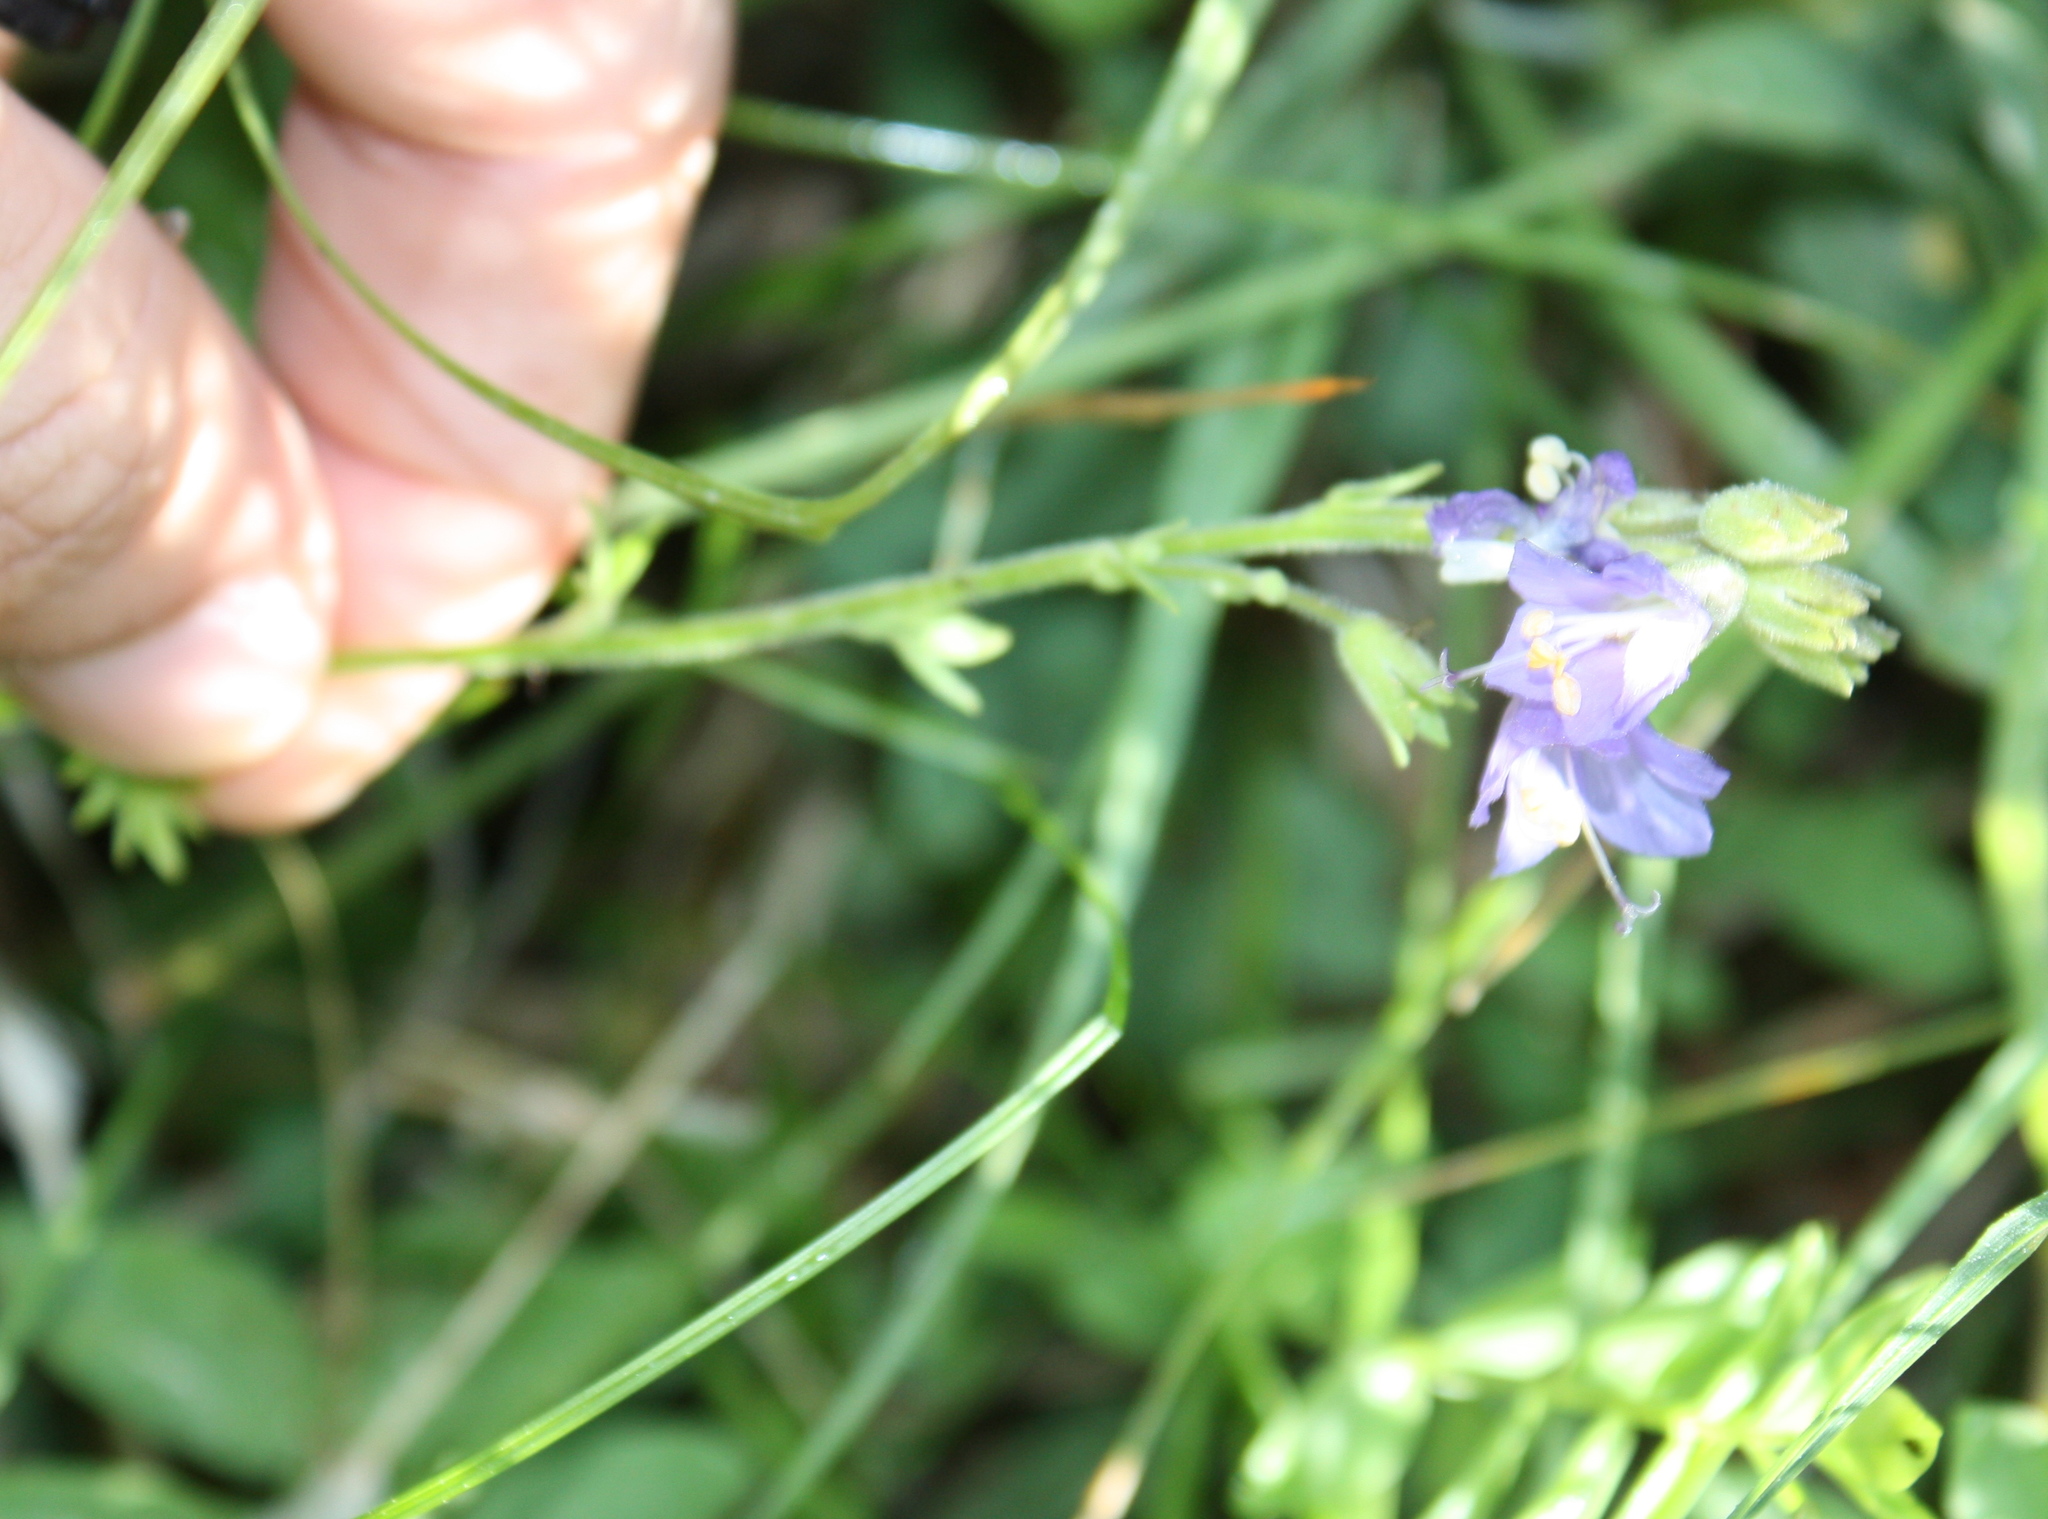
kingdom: Plantae
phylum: Tracheophyta
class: Magnoliopsida
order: Ericales
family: Polemoniaceae
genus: Polemonium
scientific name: Polemonium occidentale
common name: Western jacob's-ladder
